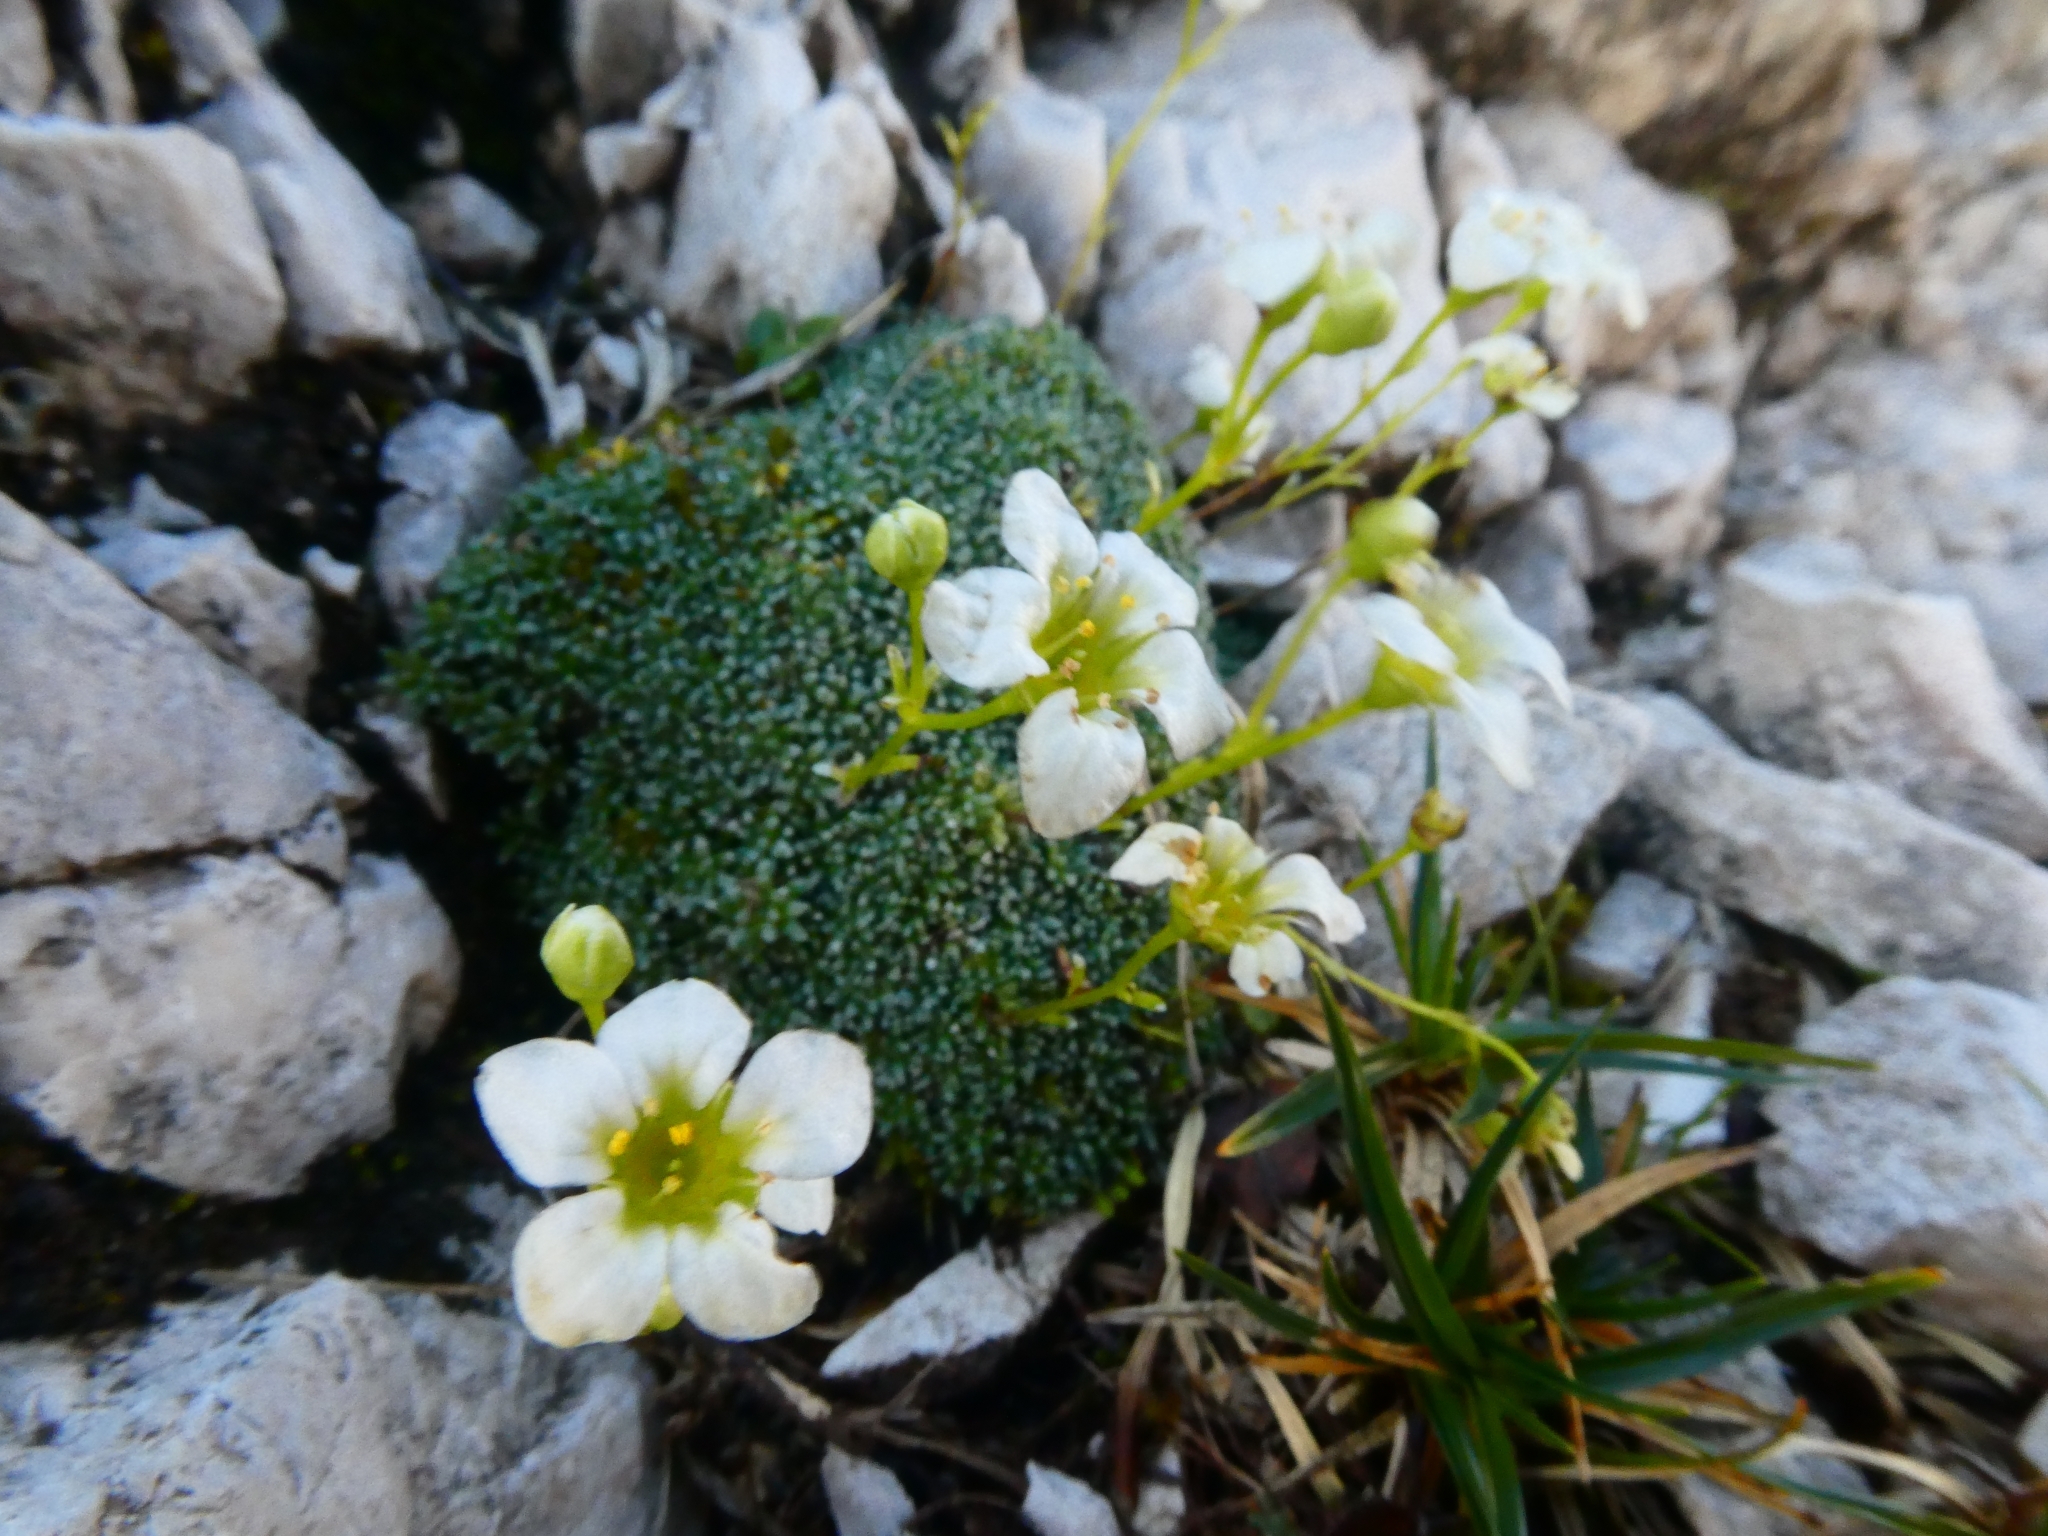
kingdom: Plantae
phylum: Tracheophyta
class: Magnoliopsida
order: Saxifragales
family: Saxifragaceae
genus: Saxifraga
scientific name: Saxifraga squarrosa
